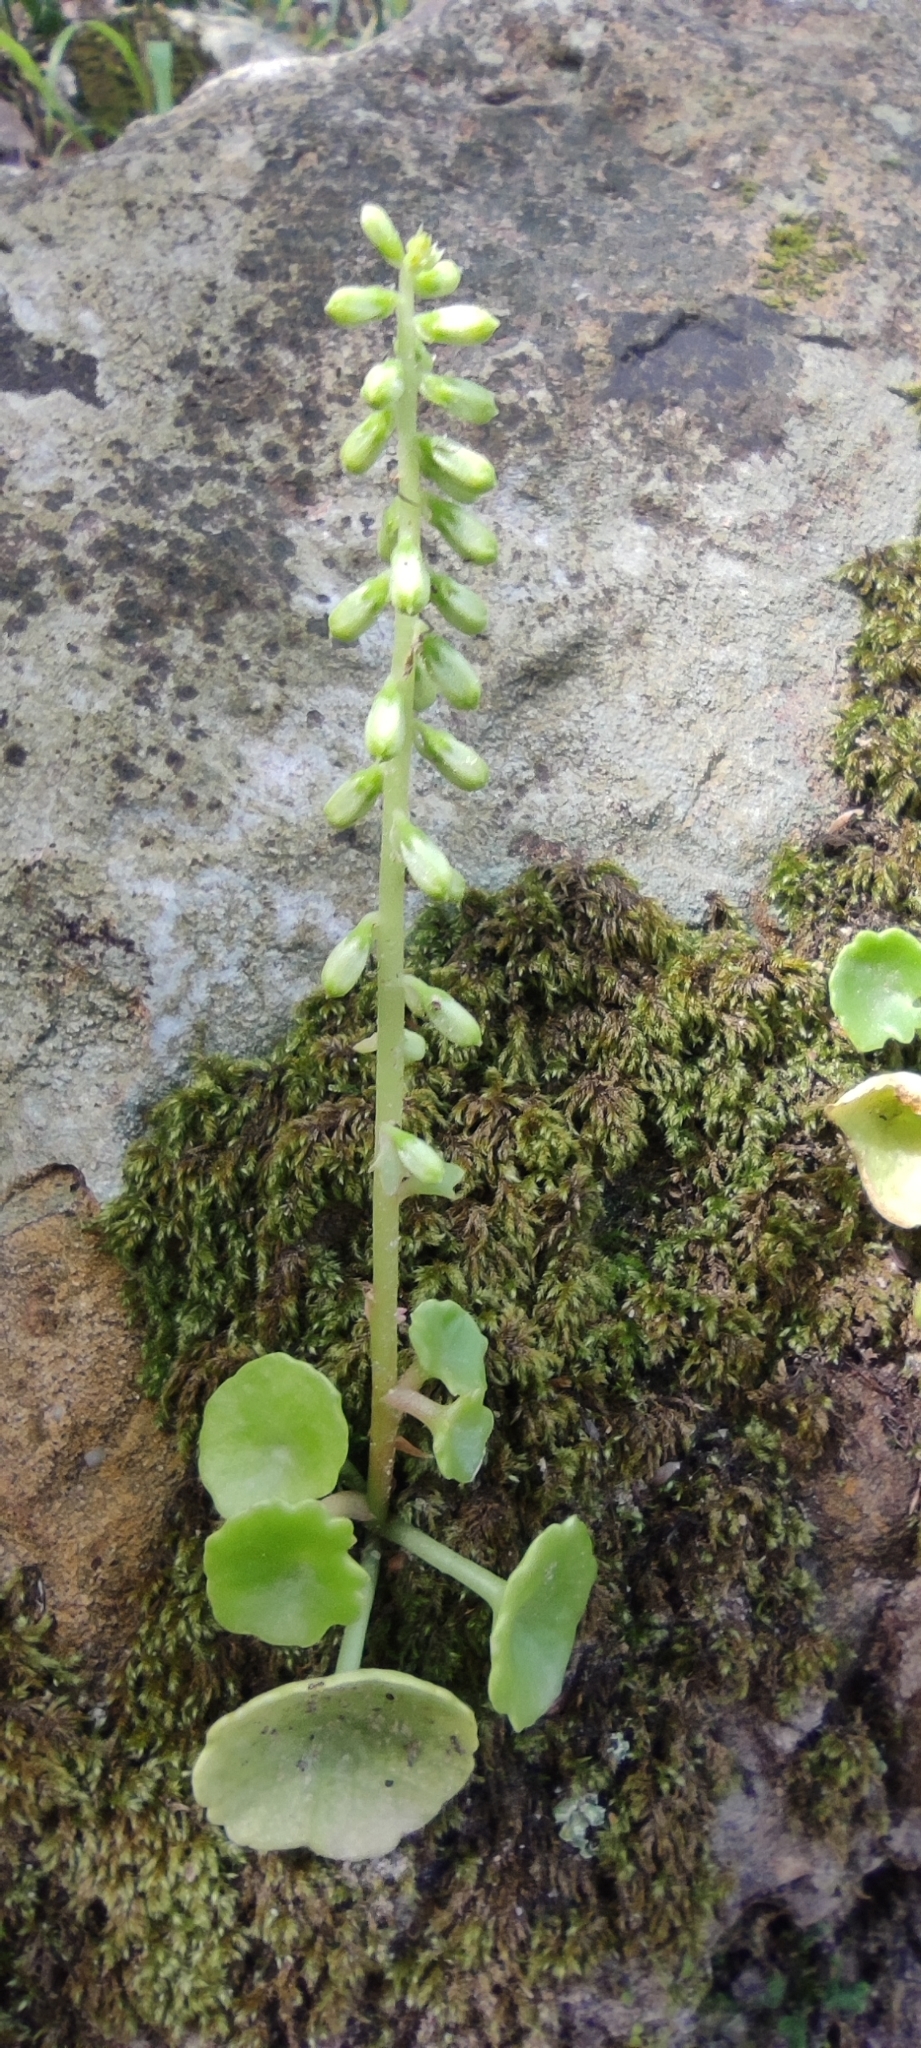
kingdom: Plantae
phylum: Tracheophyta
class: Magnoliopsida
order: Saxifragales
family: Crassulaceae
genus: Umbilicus
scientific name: Umbilicus rupestris
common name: Navelwort
